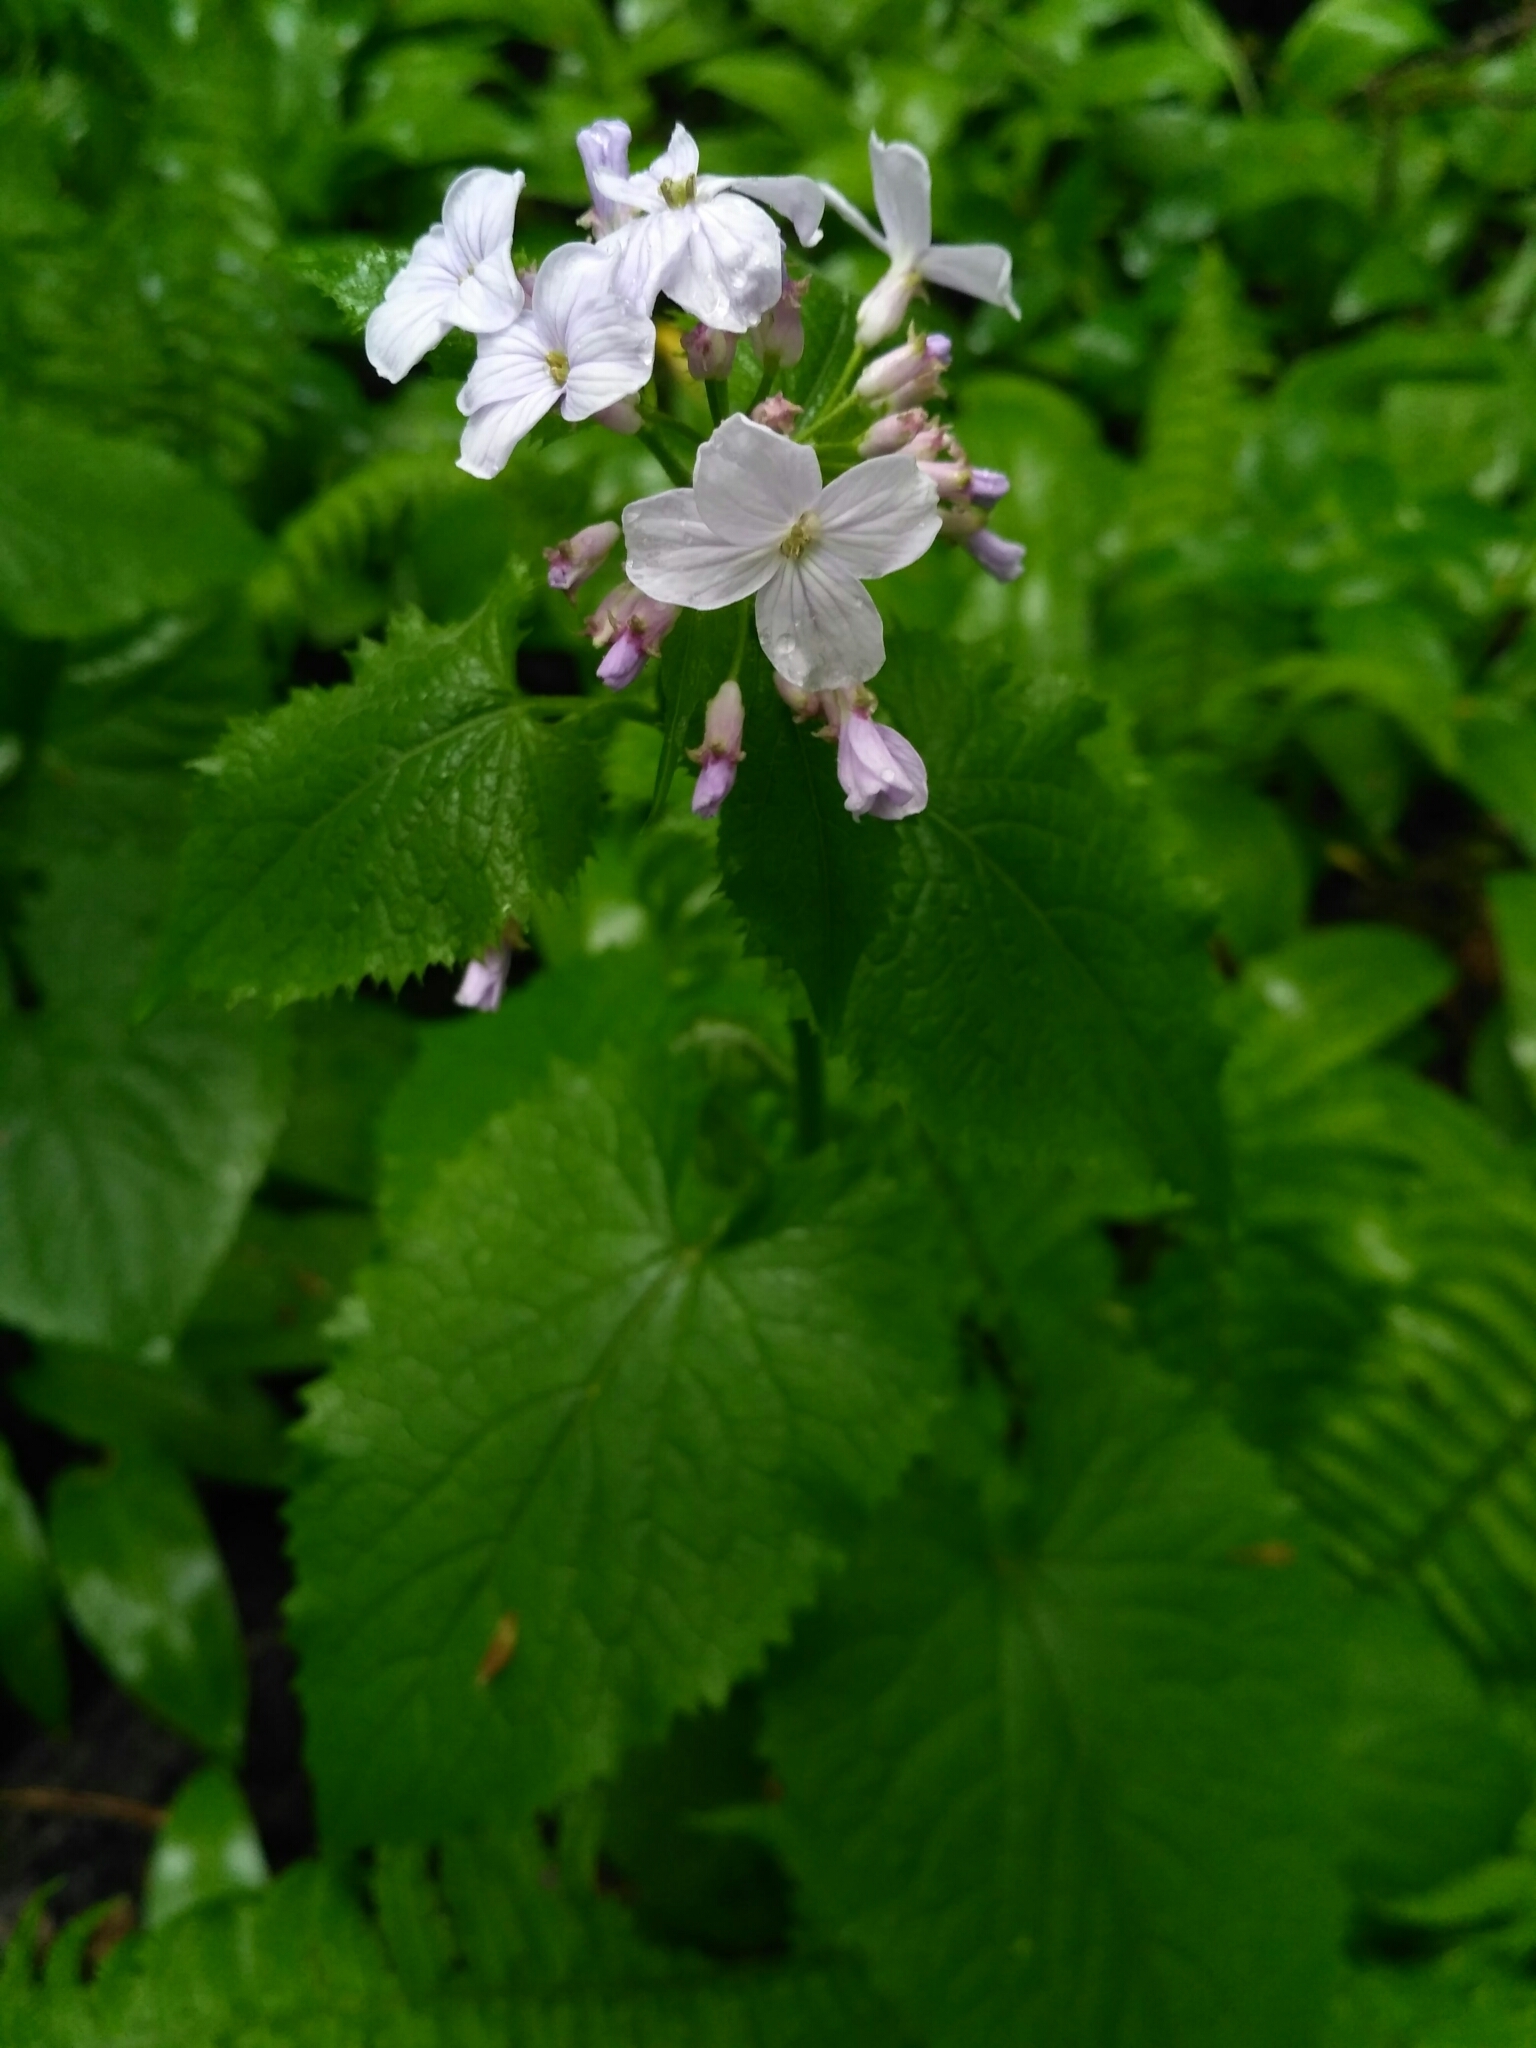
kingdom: Plantae
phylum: Tracheophyta
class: Magnoliopsida
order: Brassicales
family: Brassicaceae
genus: Lunaria
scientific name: Lunaria rediviva
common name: Perennial honesty
